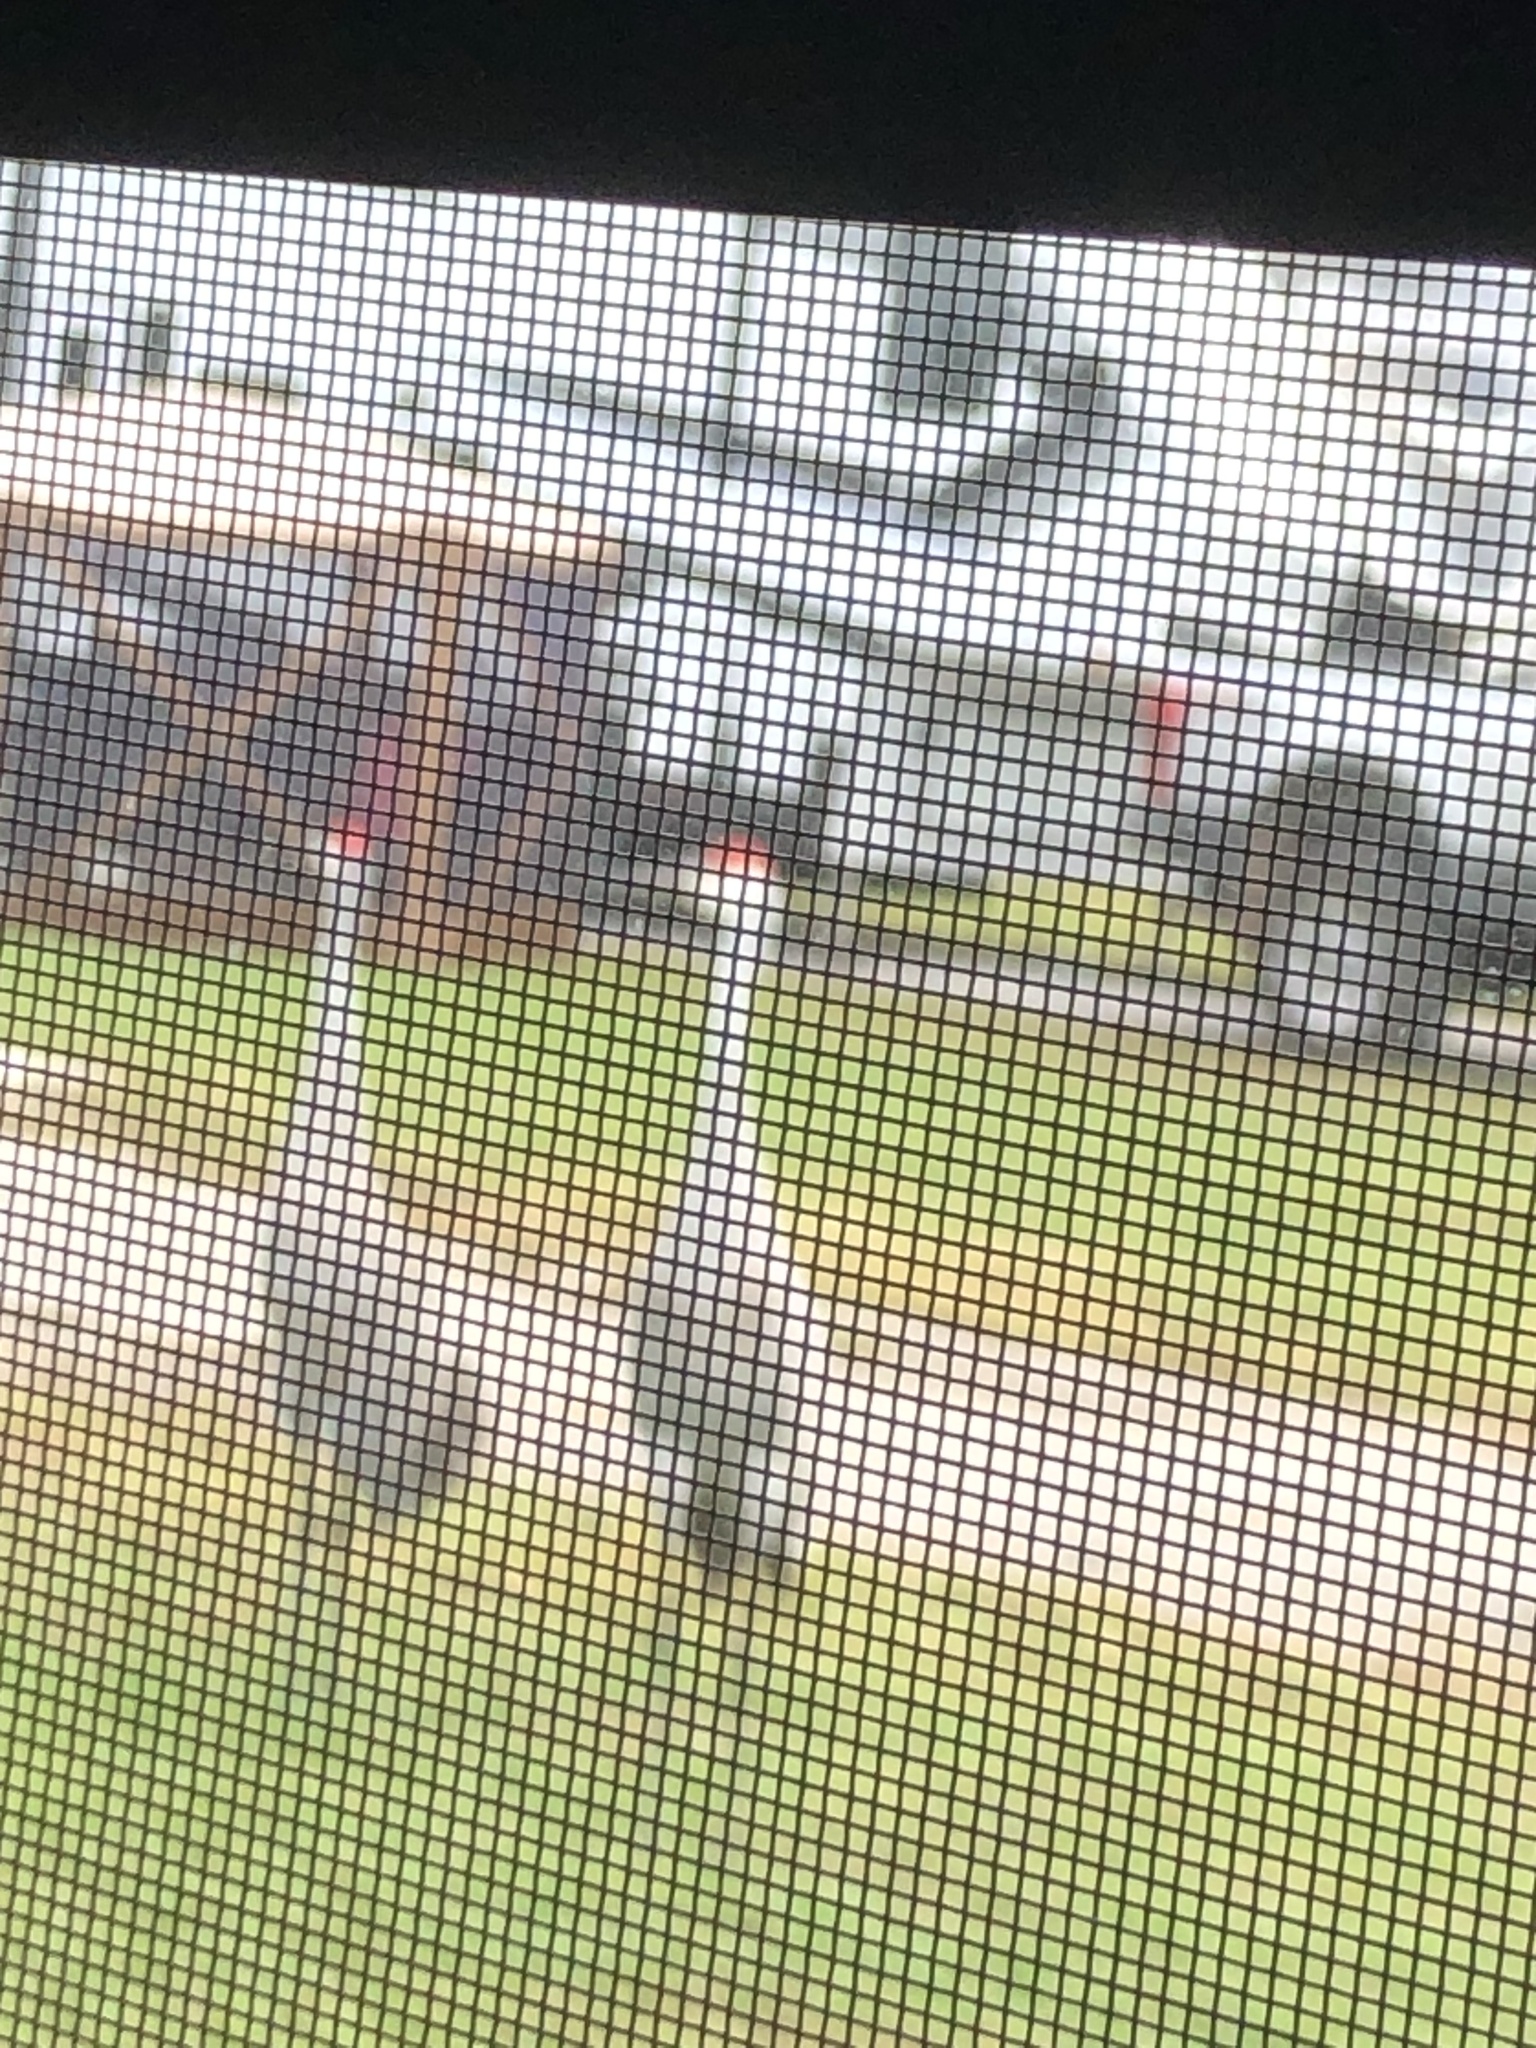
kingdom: Animalia
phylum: Chordata
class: Aves
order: Gruiformes
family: Gruidae
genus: Grus
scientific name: Grus canadensis
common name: Sandhill crane
